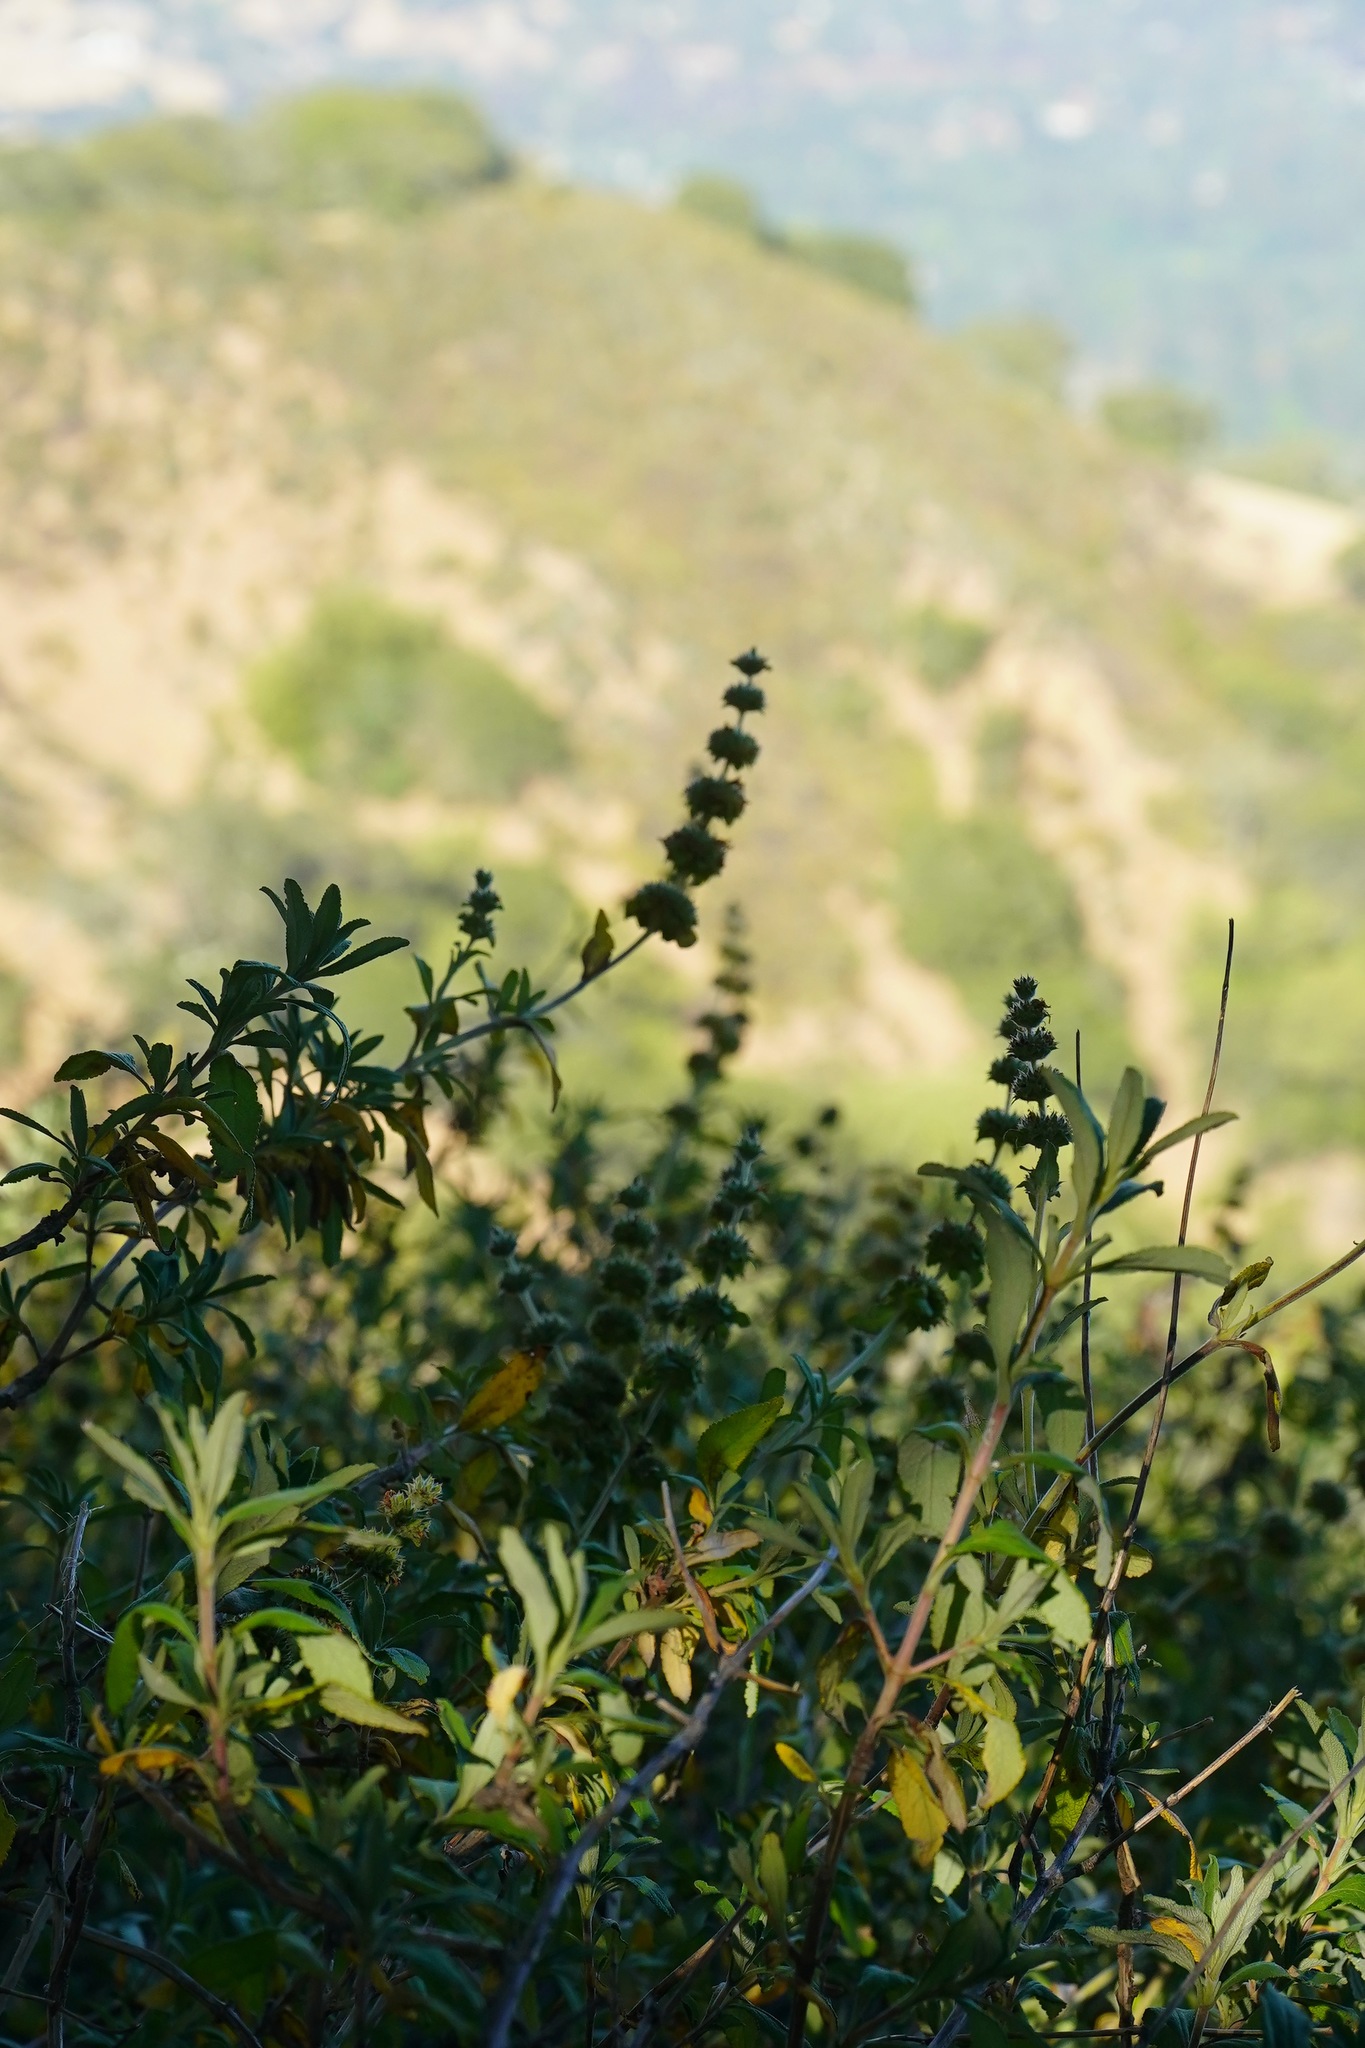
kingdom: Plantae
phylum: Tracheophyta
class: Magnoliopsida
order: Lamiales
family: Lamiaceae
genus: Salvia
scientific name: Salvia mellifera
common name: Black sage
